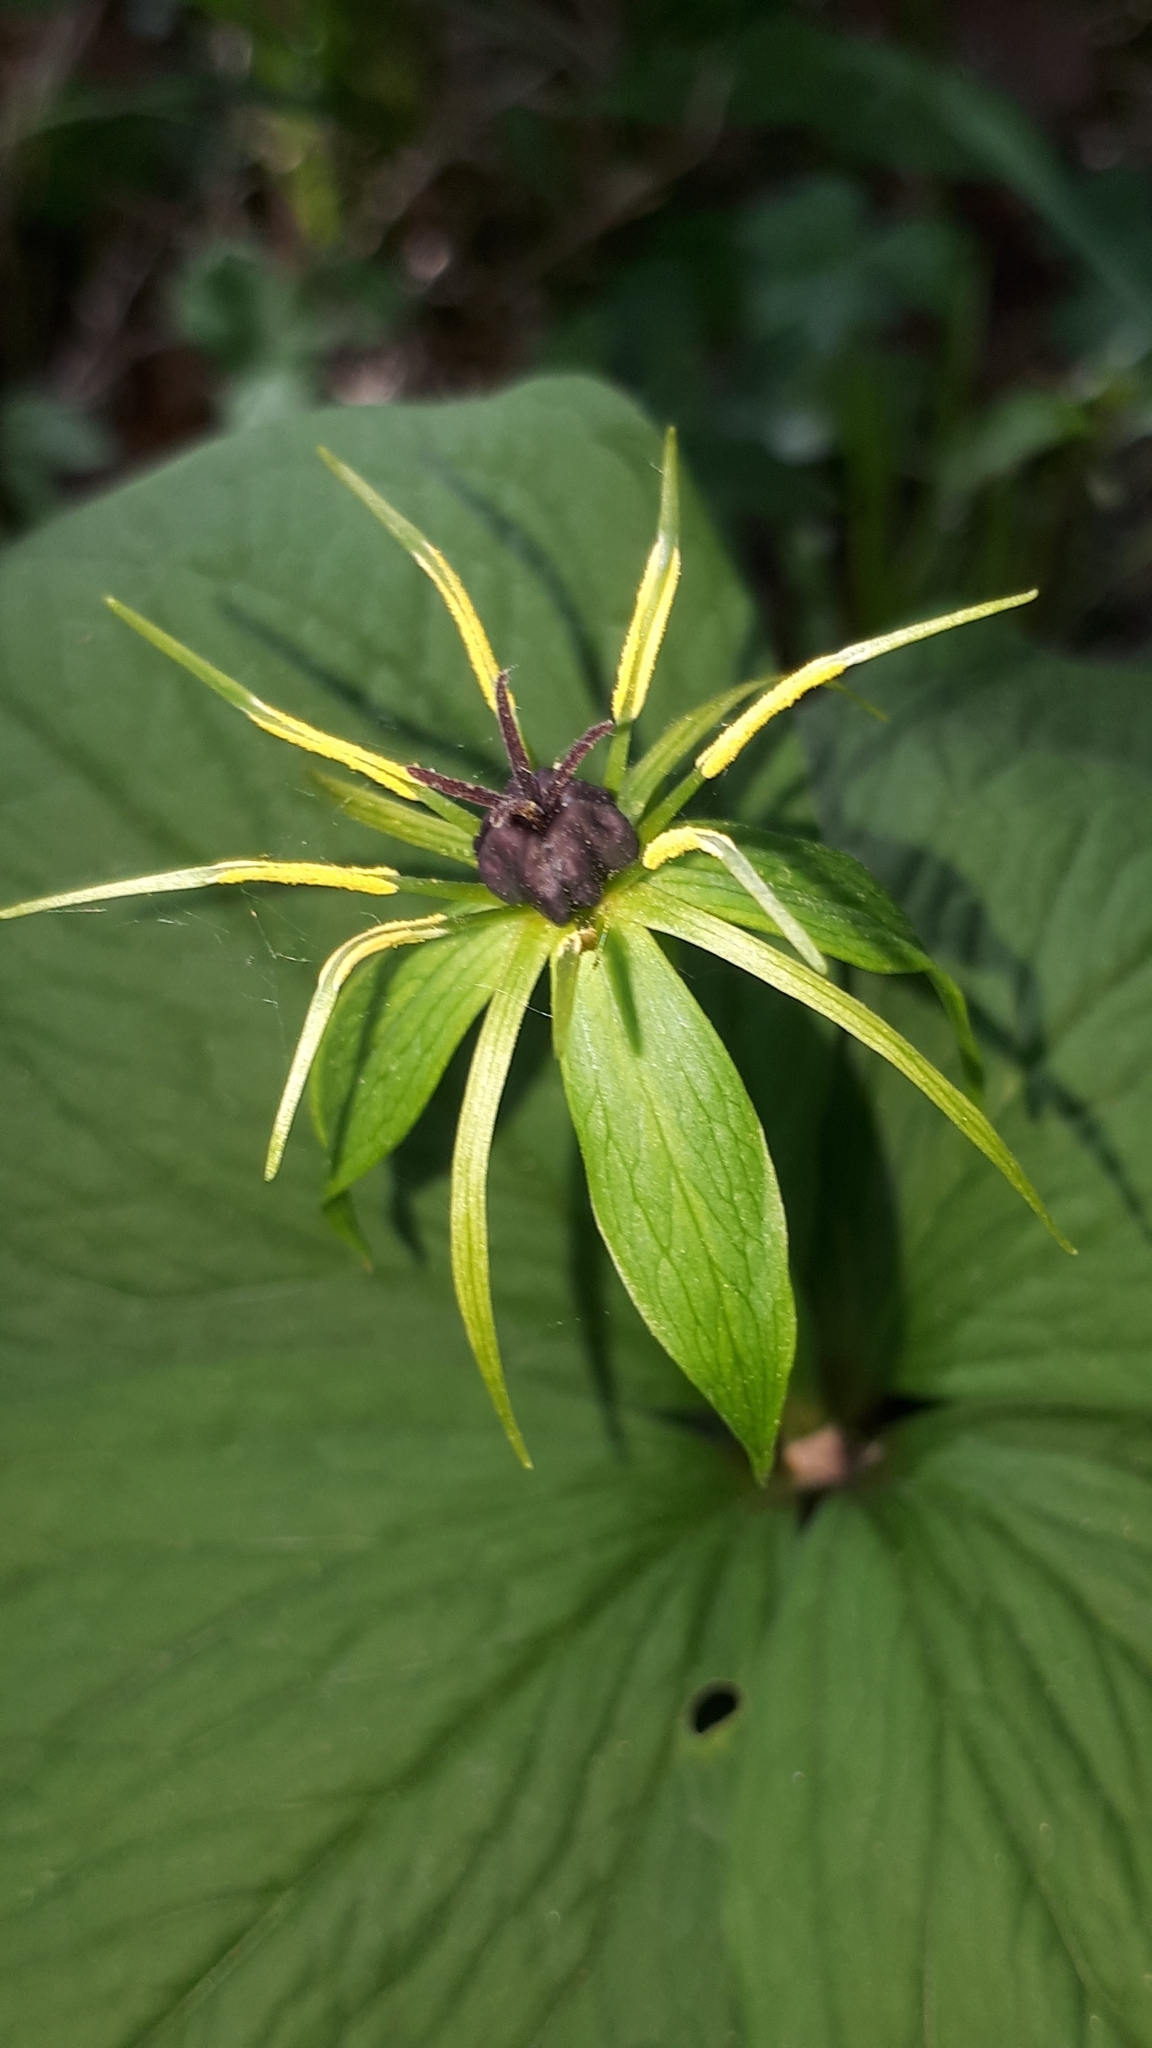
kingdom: Plantae
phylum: Tracheophyta
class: Liliopsida
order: Liliales
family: Melanthiaceae
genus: Paris
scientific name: Paris quadrifolia
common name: Herb-paris
